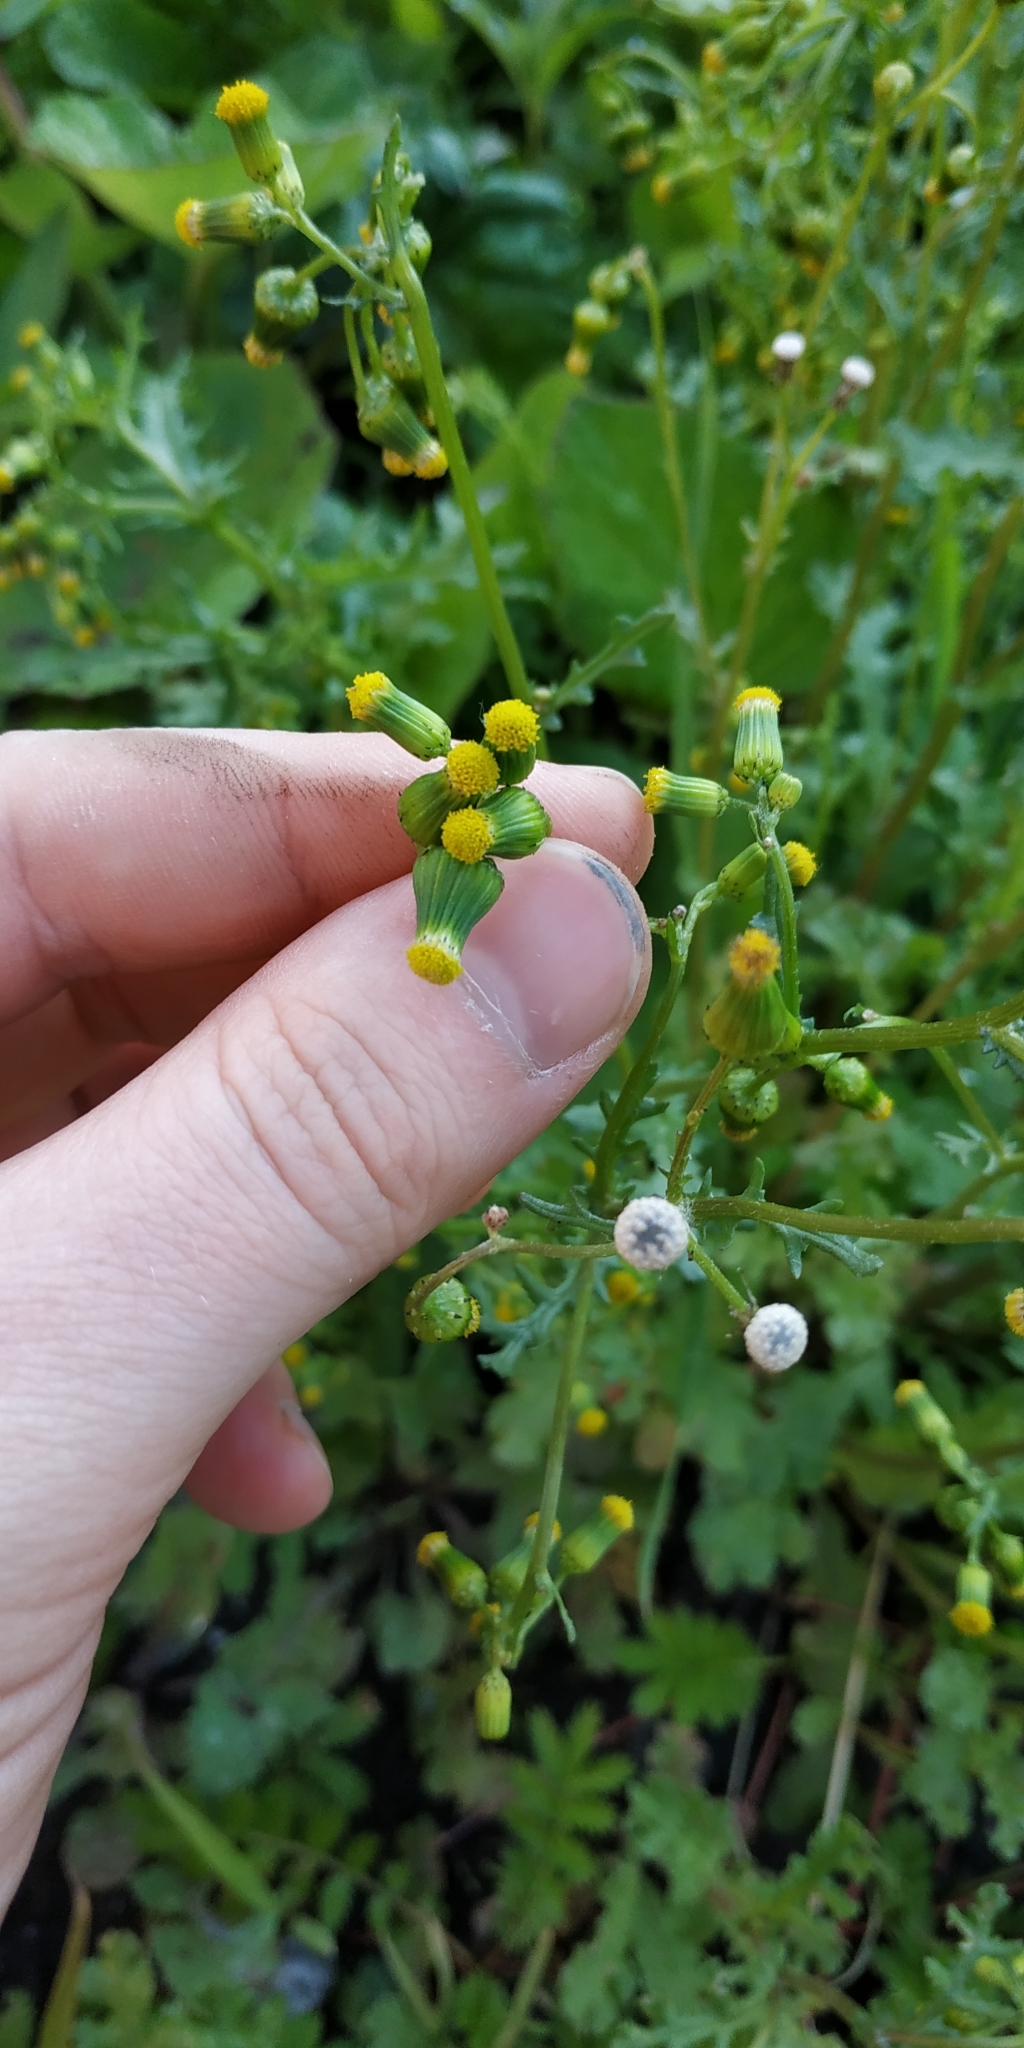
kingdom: Plantae
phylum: Tracheophyta
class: Magnoliopsida
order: Asterales
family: Asteraceae
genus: Senecio
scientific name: Senecio vulgaris
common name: Old-man-in-the-spring
